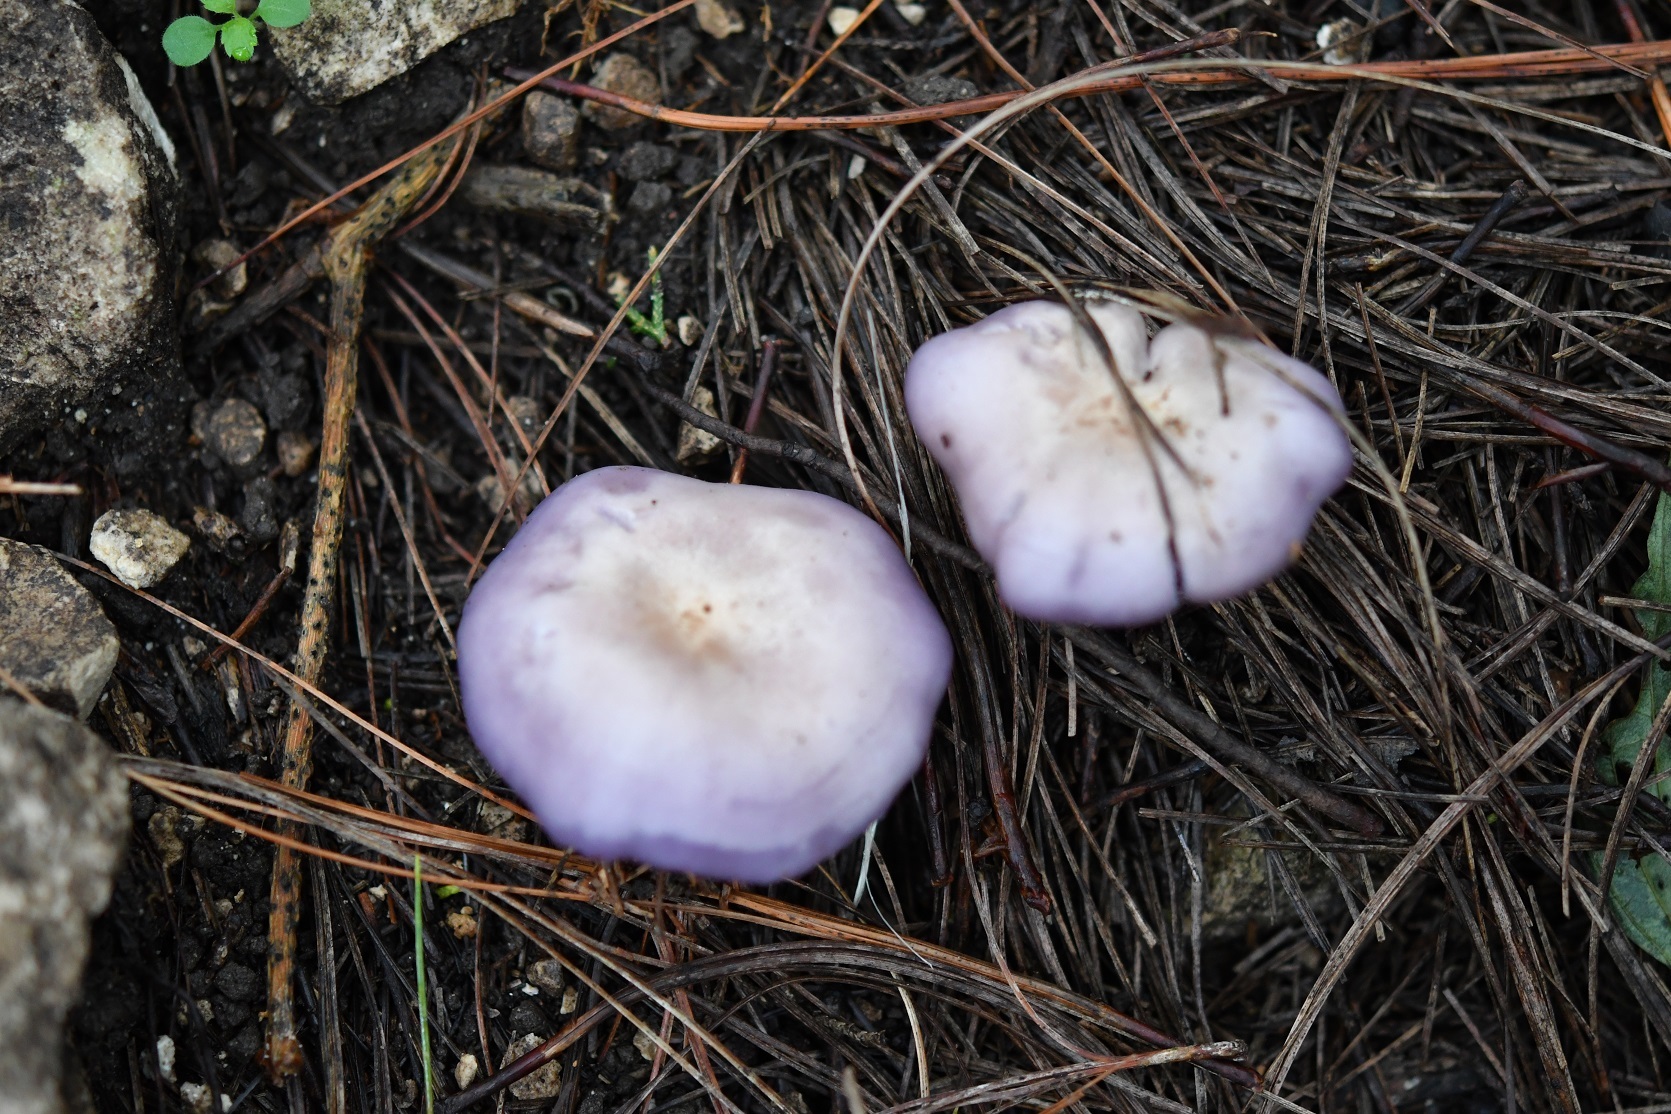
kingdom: Fungi
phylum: Basidiomycota
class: Agaricomycetes
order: Agaricales
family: Tricholomataceae
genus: Collybia
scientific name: Collybia
